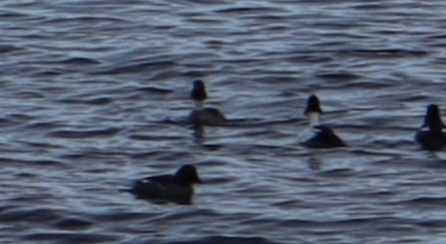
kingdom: Animalia
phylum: Chordata
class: Aves
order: Anseriformes
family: Anatidae
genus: Bucephala
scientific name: Bucephala clangula
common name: Common goldeneye
